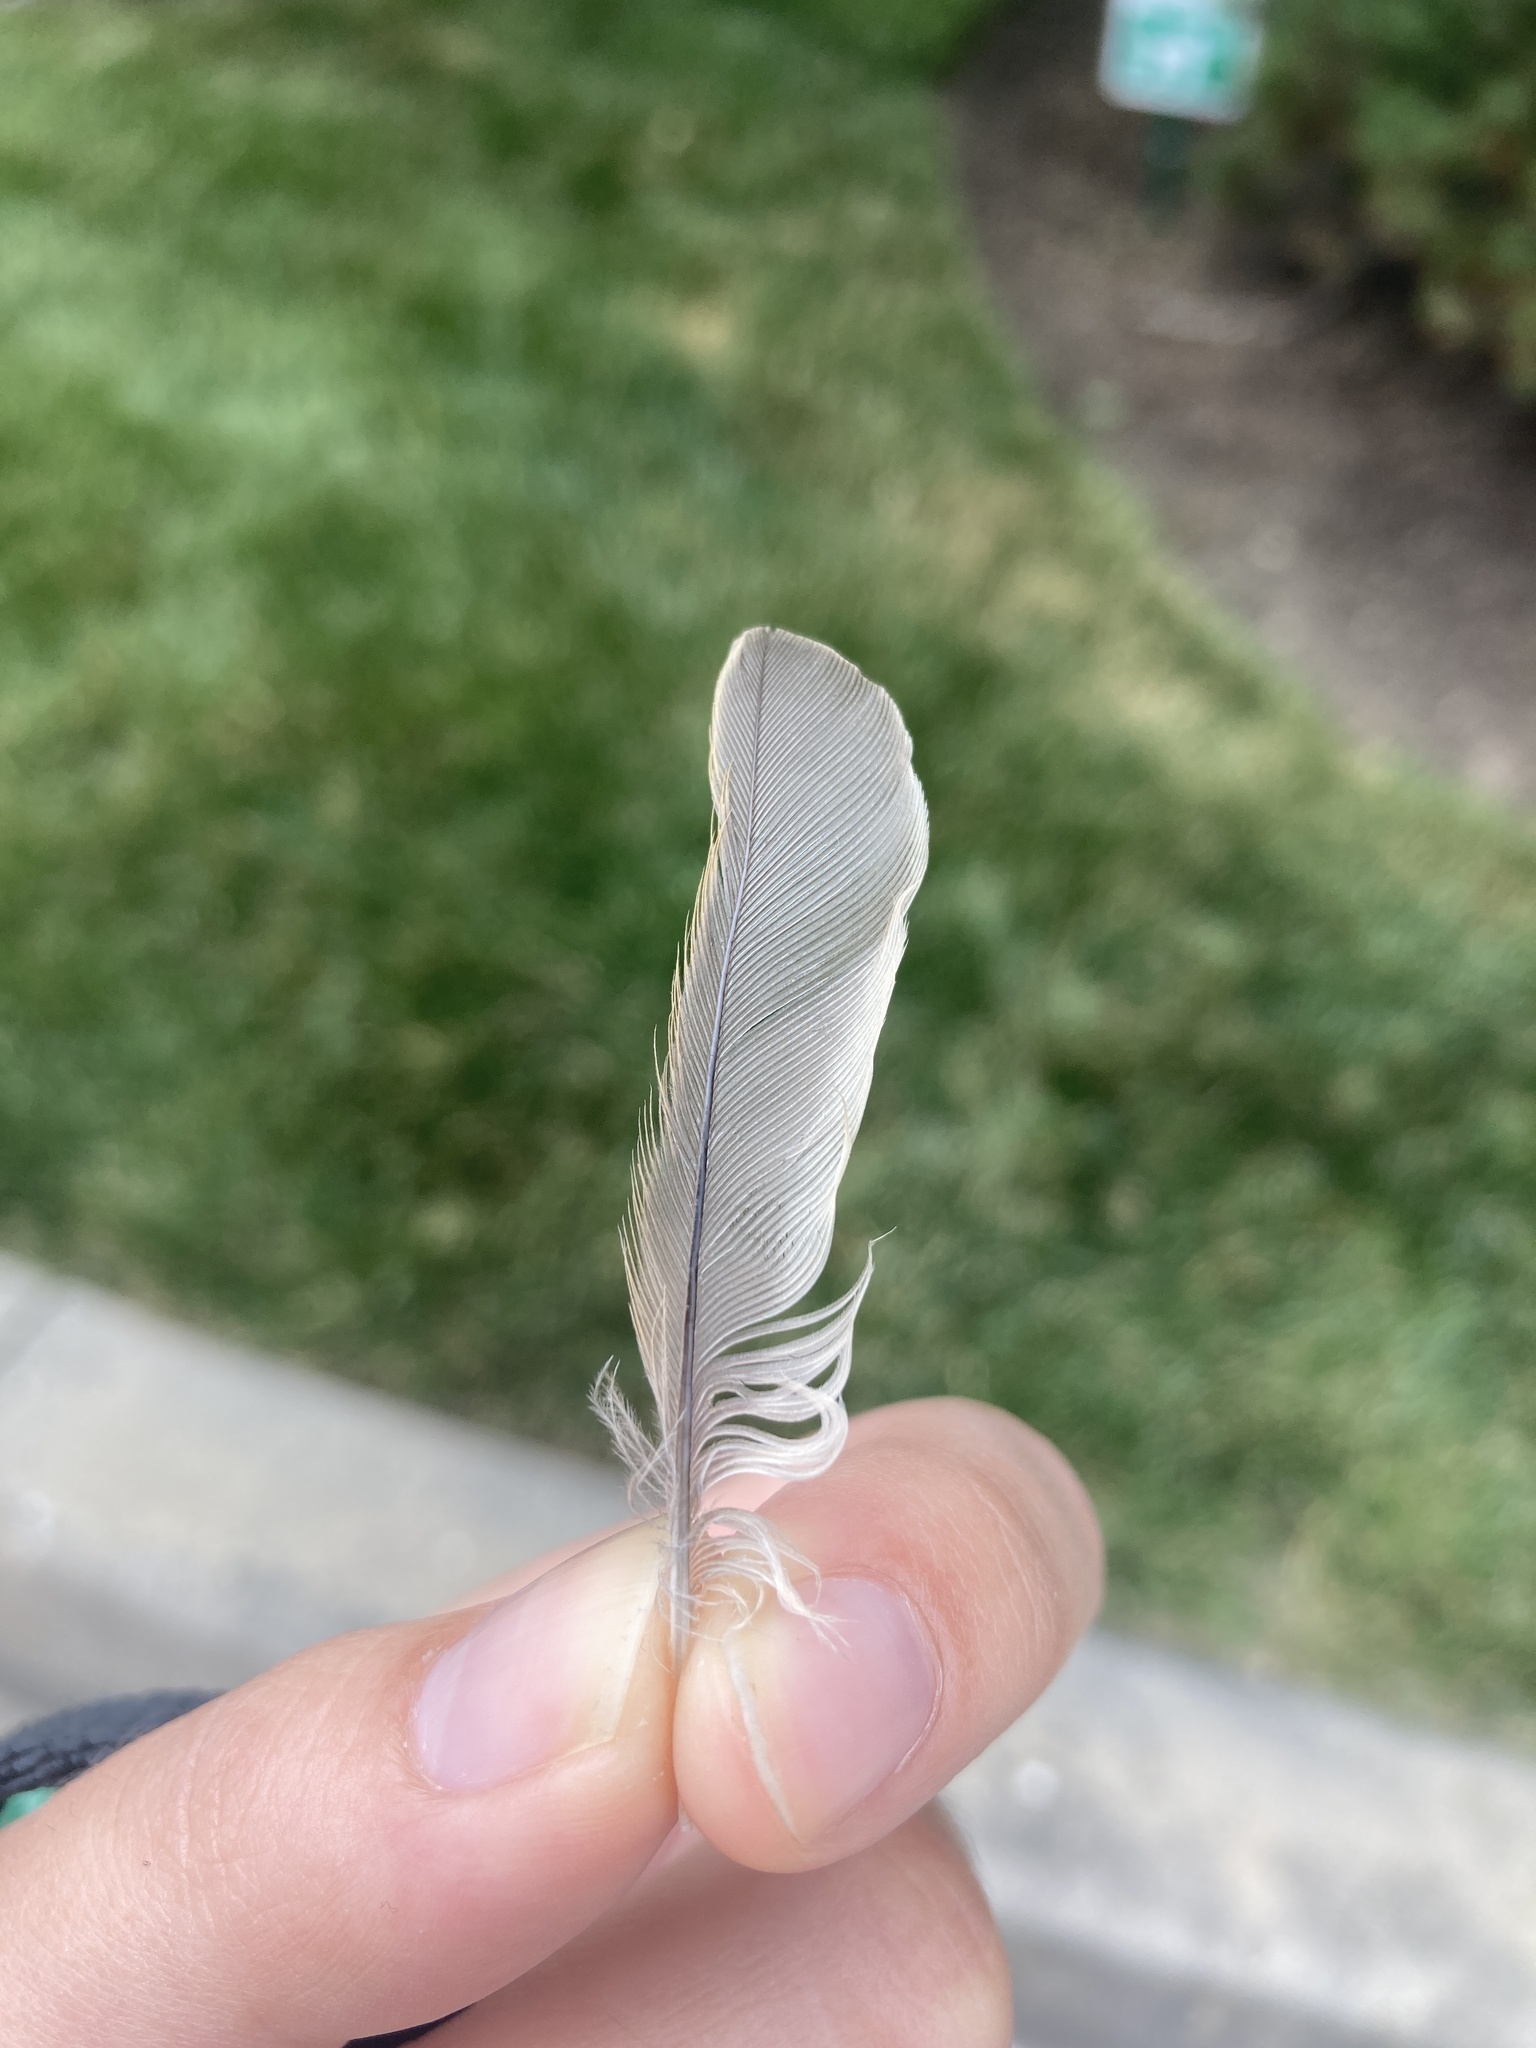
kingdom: Animalia
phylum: Chordata
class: Aves
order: Passeriformes
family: Passeridae
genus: Passer
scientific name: Passer domesticus
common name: House sparrow
